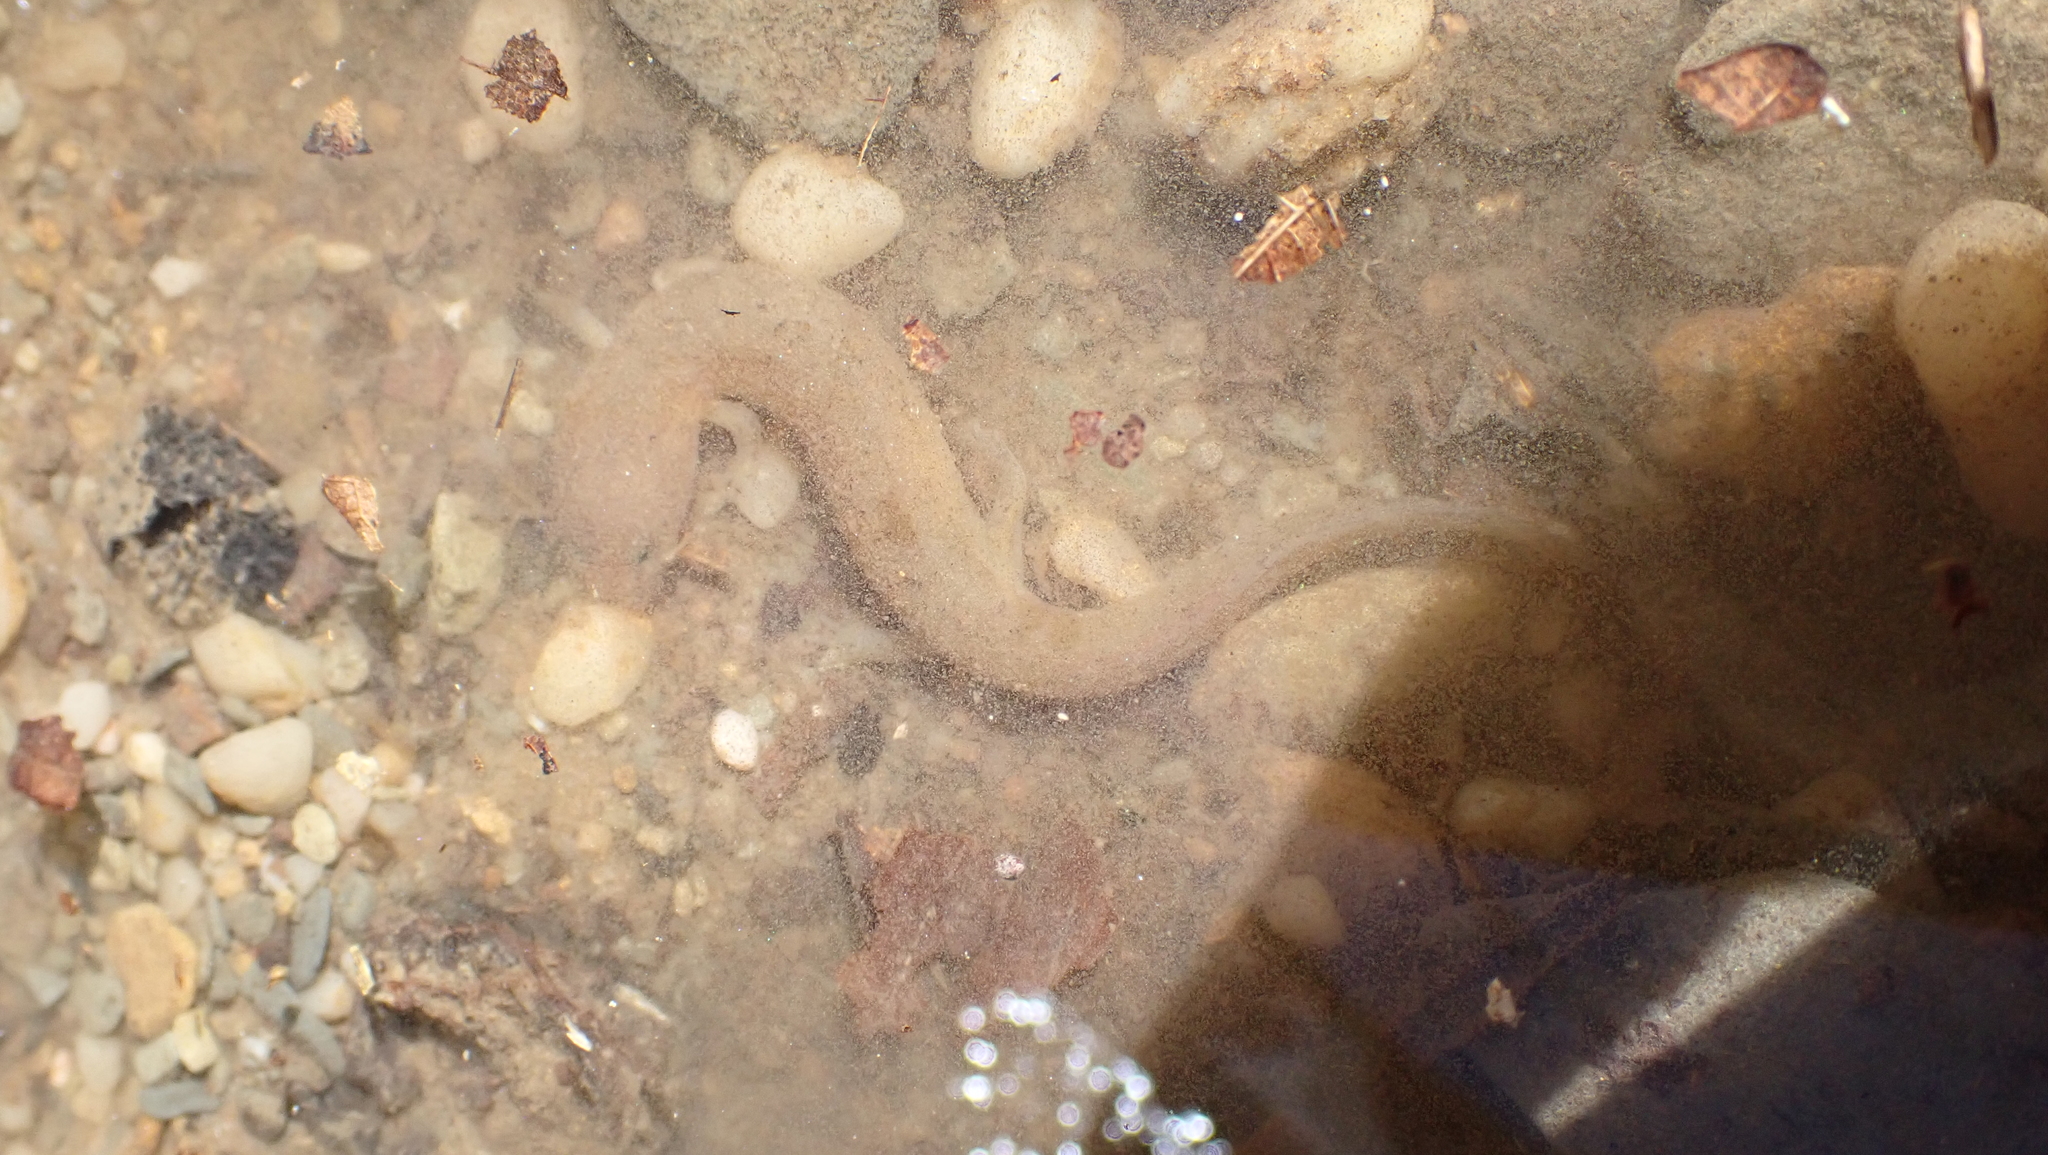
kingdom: Animalia
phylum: Chordata
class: Amphibia
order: Caudata
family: Plethodontidae
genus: Gyrinophilus
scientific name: Gyrinophilus porphyriticus
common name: Spring salamander
